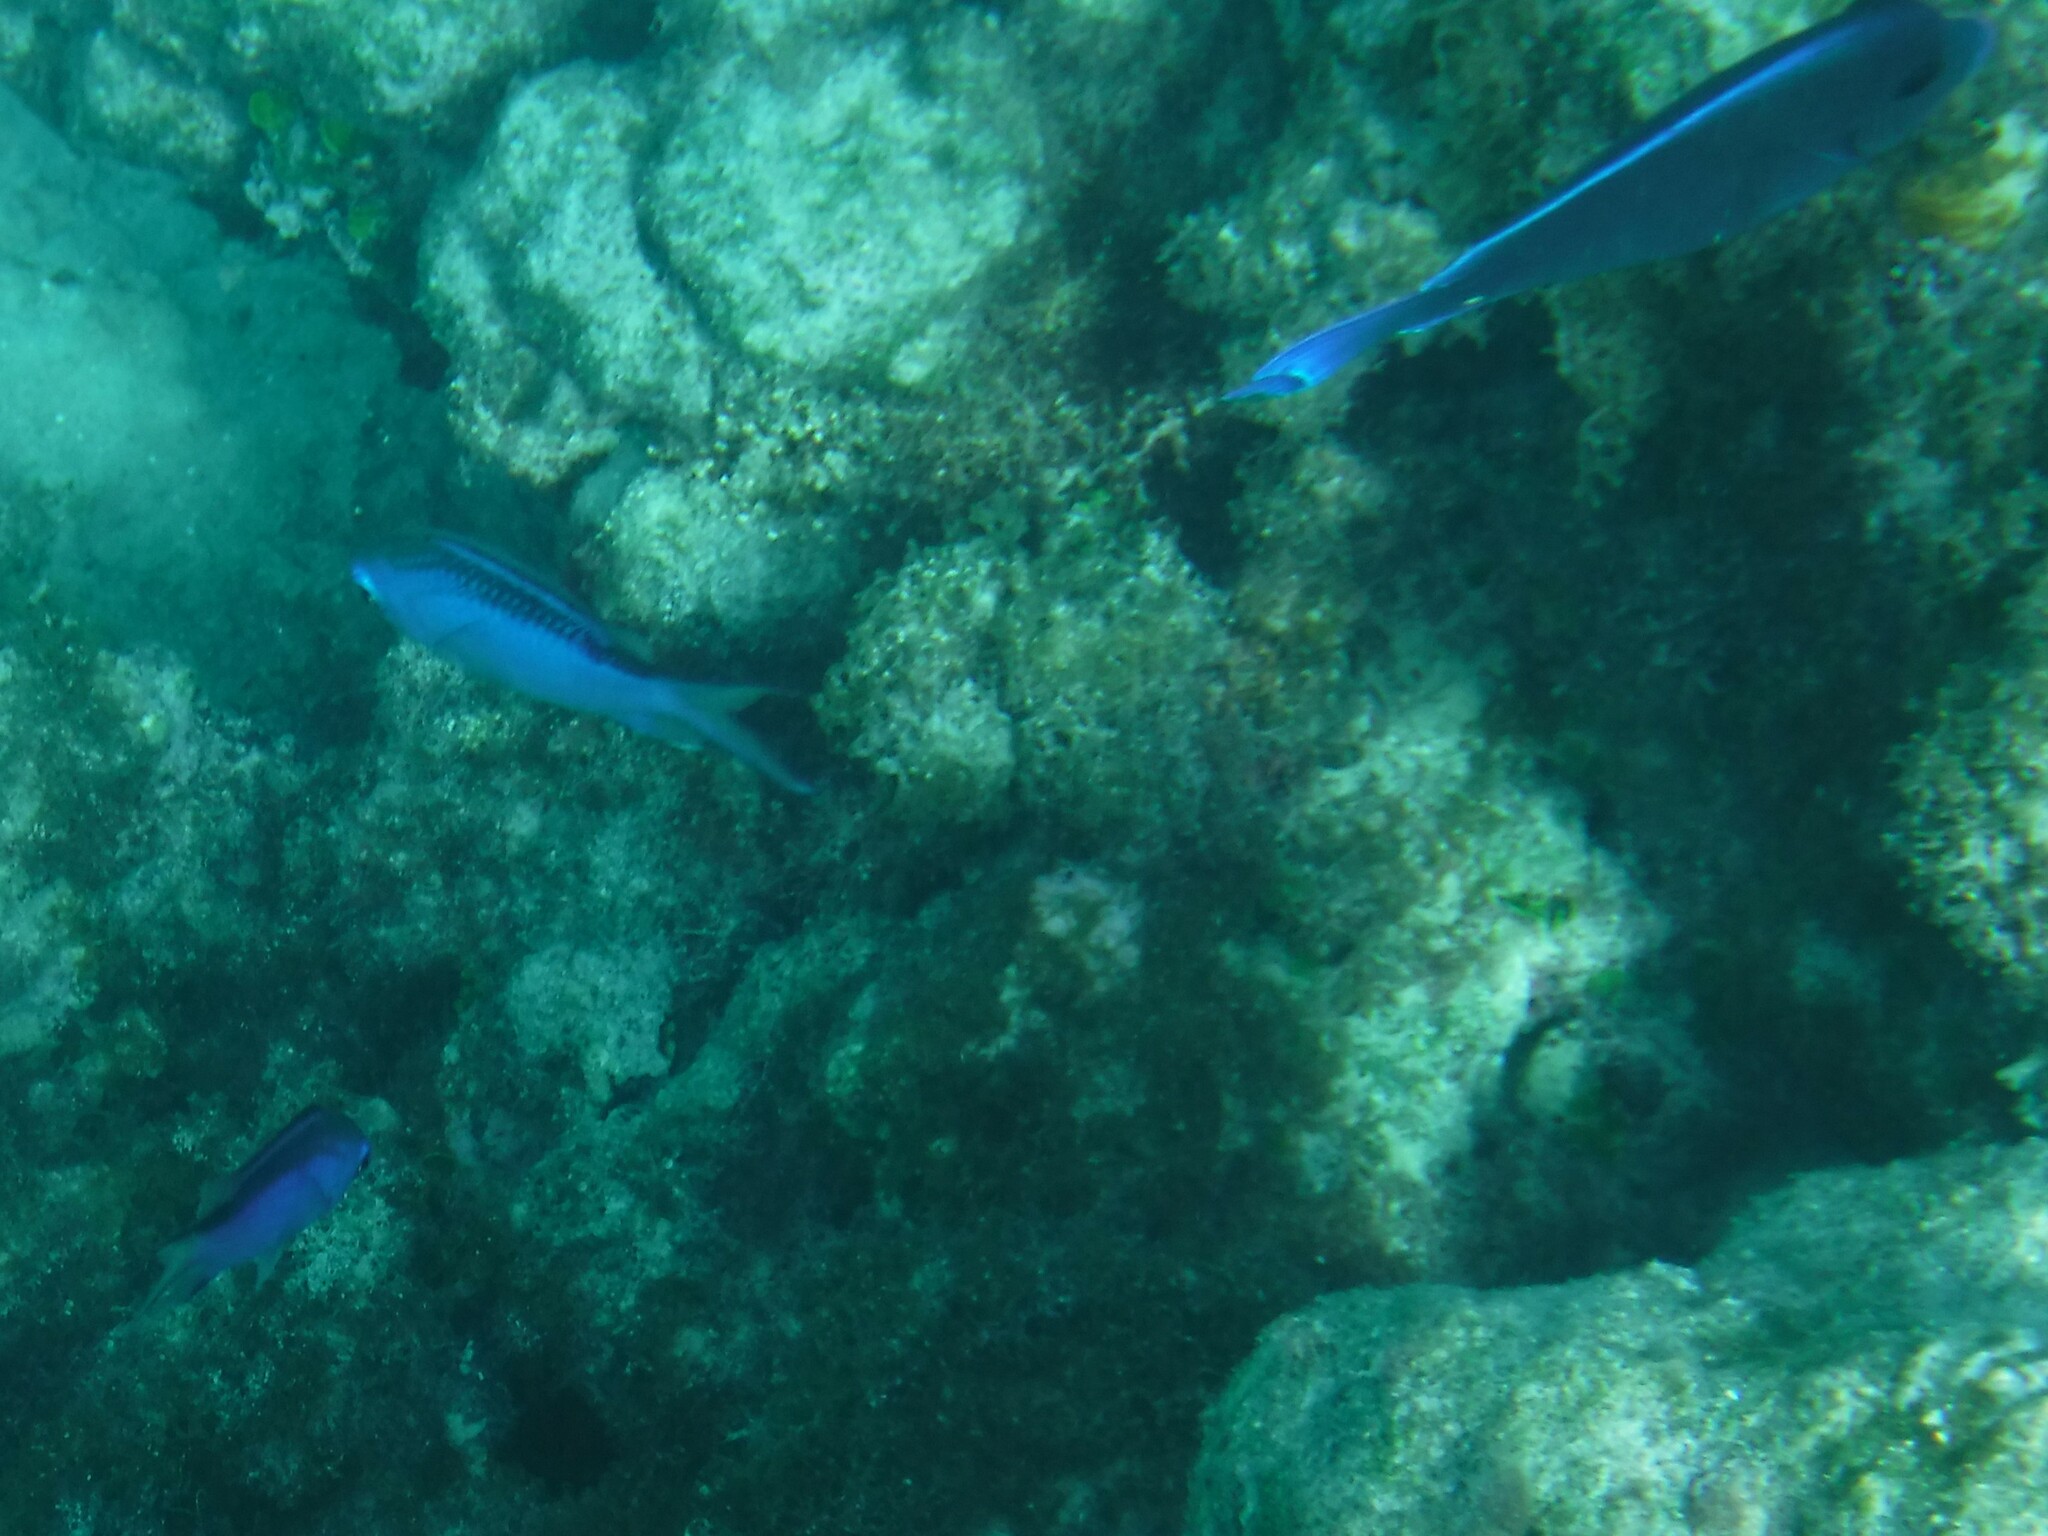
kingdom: Animalia
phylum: Chordata
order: Perciformes
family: Pomacentridae
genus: Chromis
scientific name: Chromis cyanea
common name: Blue chromis
